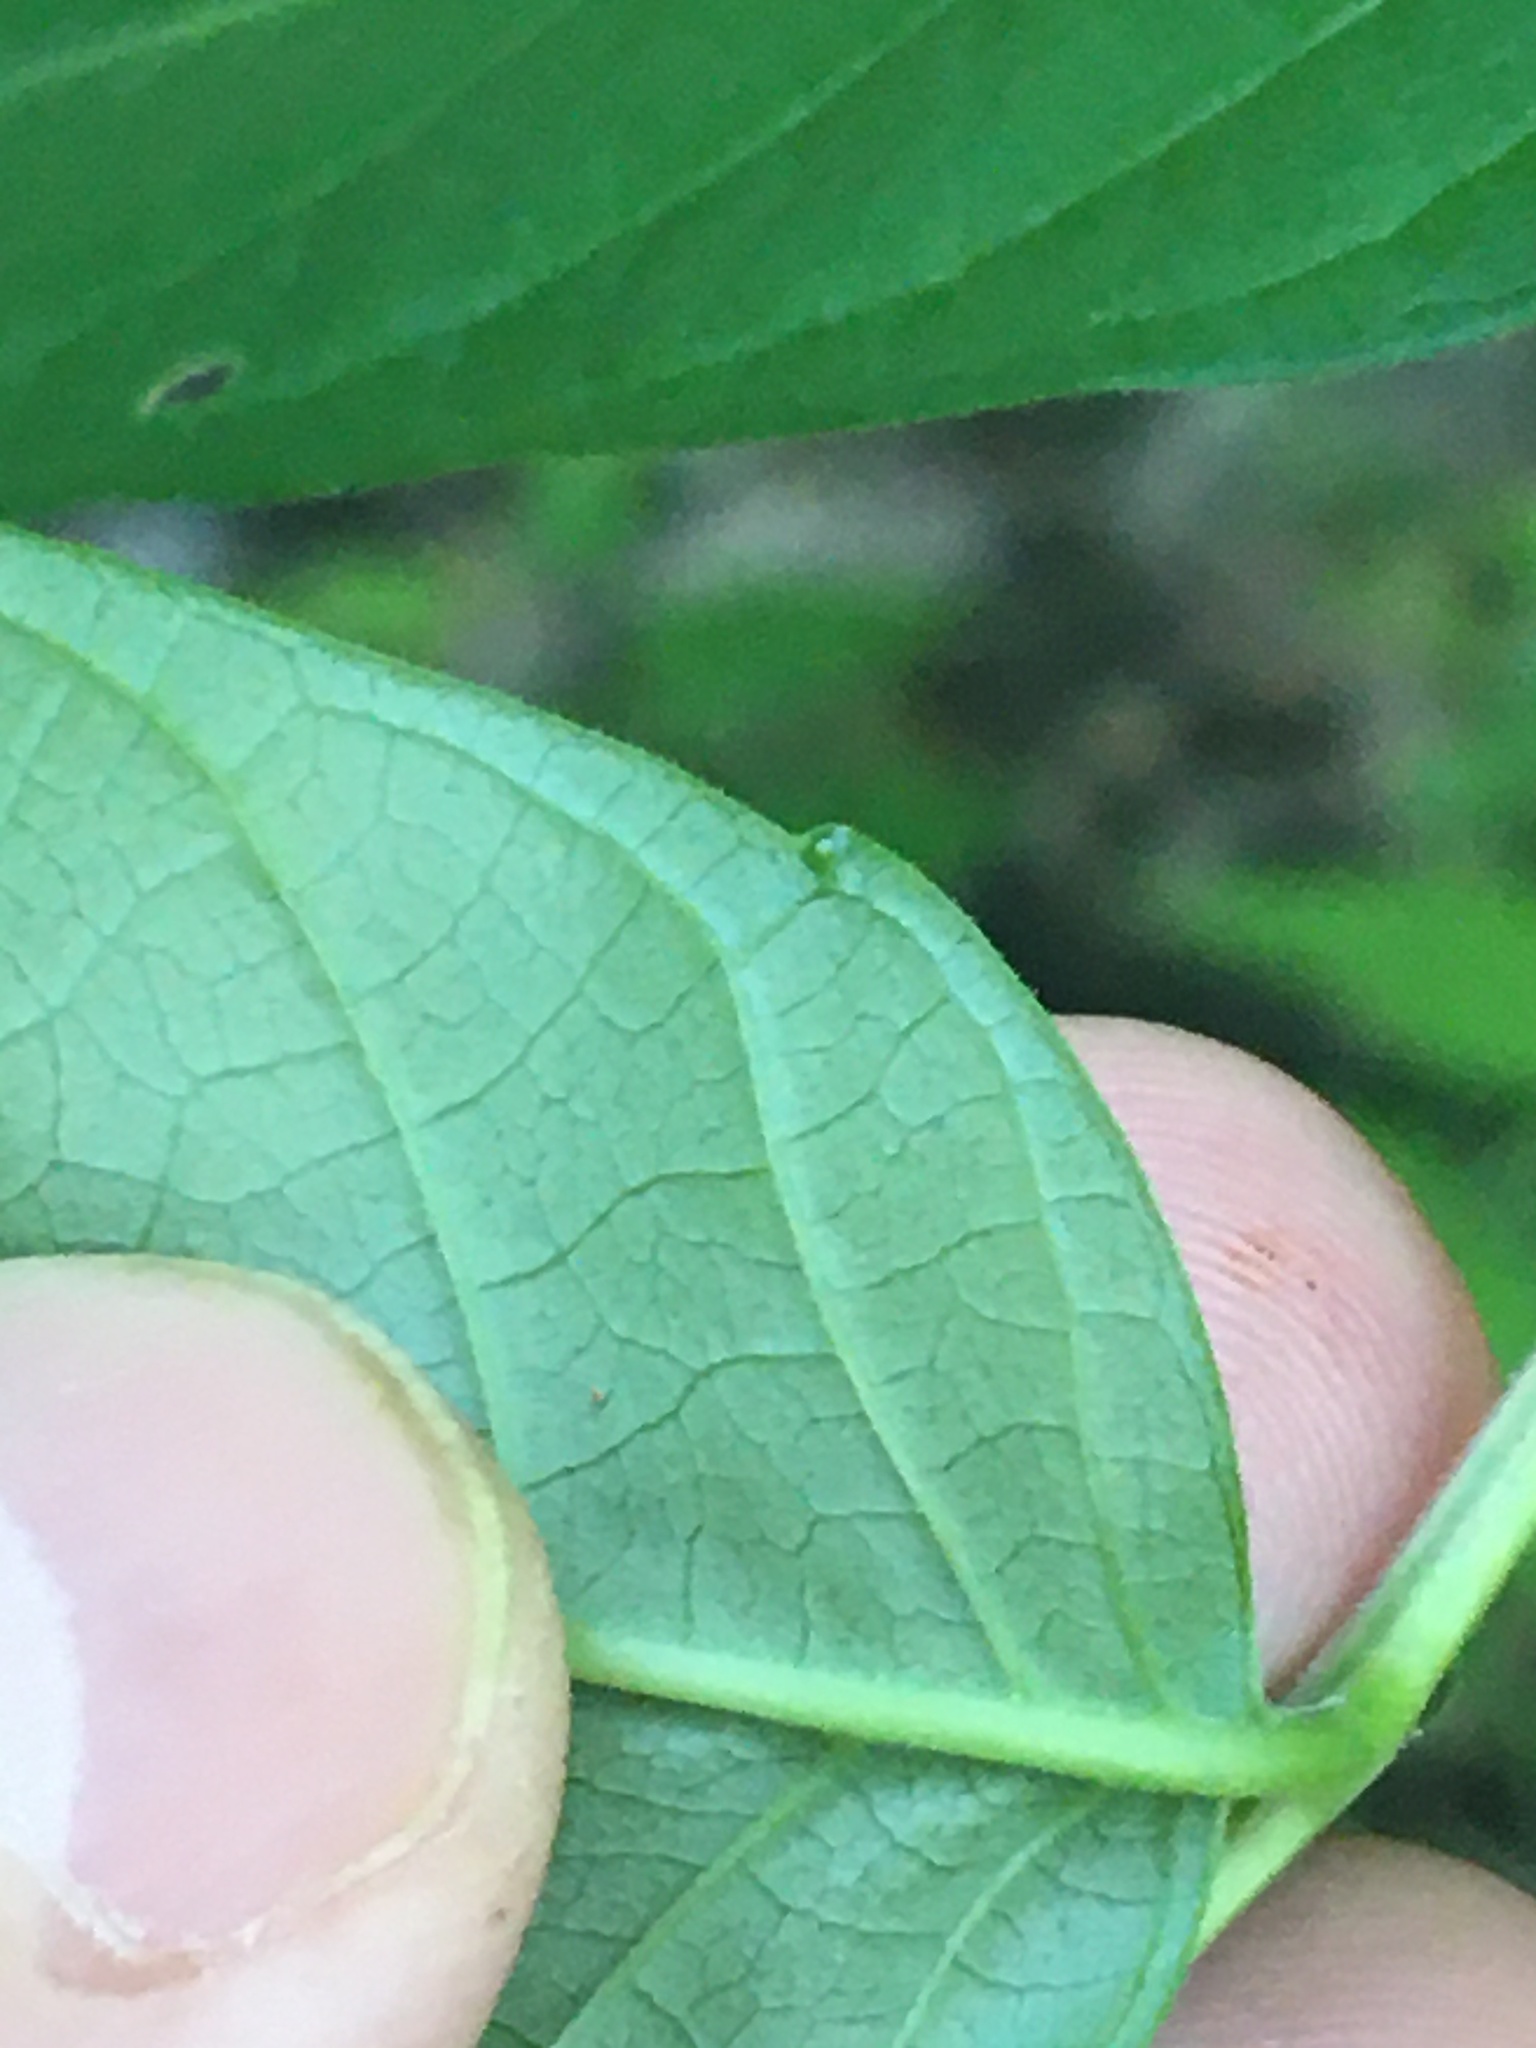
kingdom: Plantae
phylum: Tracheophyta
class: Magnoliopsida
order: Sapindales
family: Simaroubaceae
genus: Ailanthus
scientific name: Ailanthus altissima
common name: Tree-of-heaven
